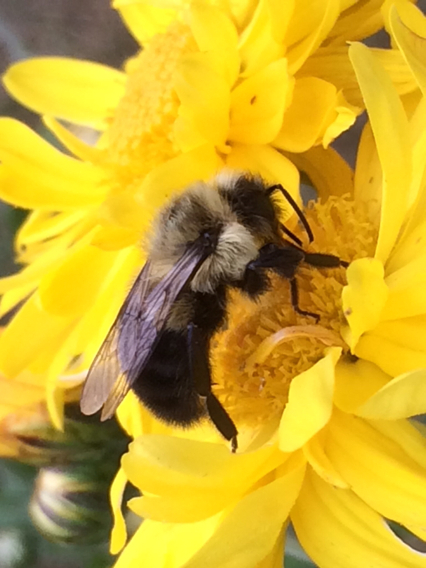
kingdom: Animalia
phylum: Arthropoda
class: Insecta
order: Hymenoptera
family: Apidae
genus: Bombus
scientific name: Bombus impatiens
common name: Common eastern bumble bee
